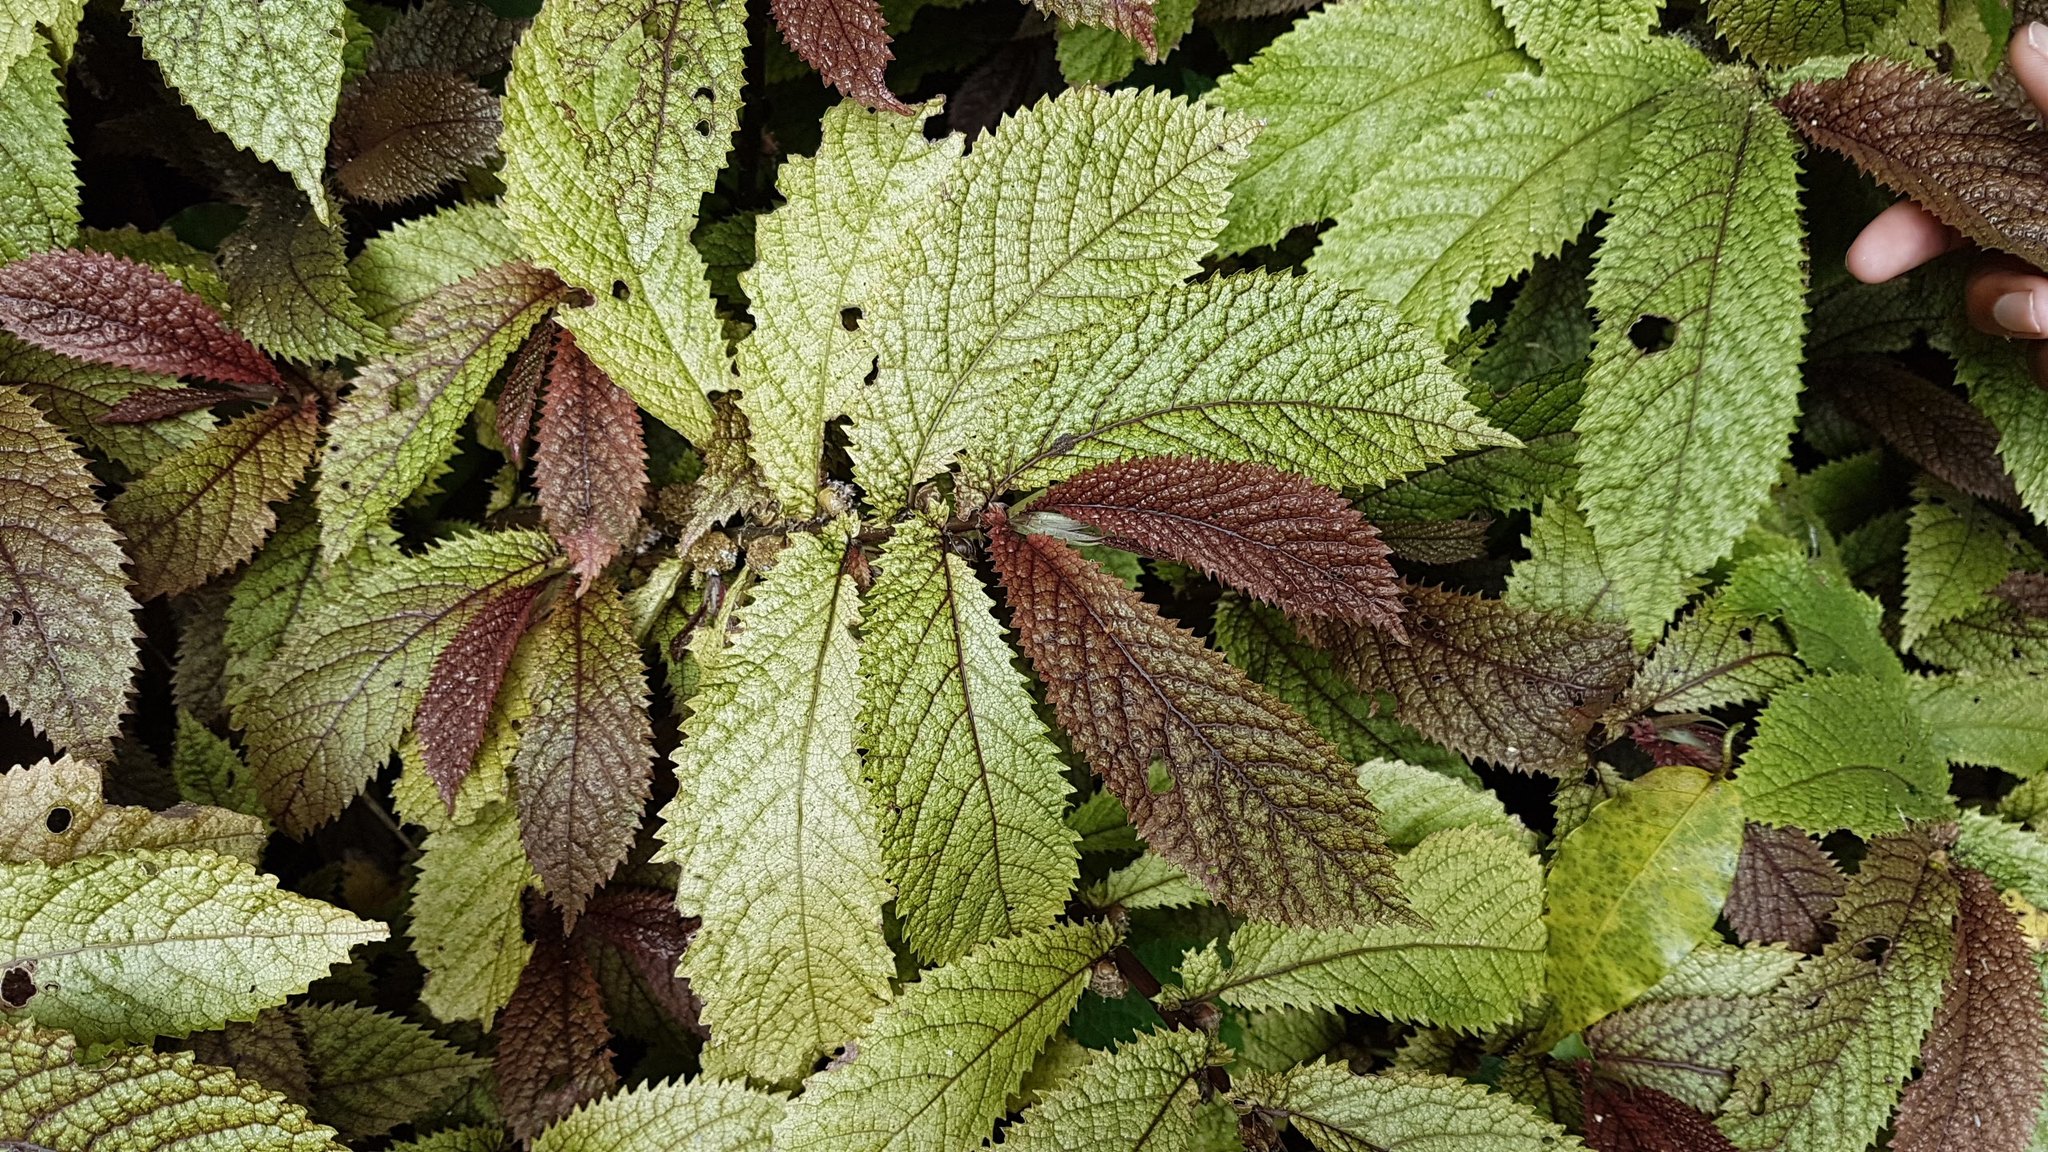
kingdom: Plantae
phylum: Tracheophyta
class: Magnoliopsida
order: Rosales
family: Urticaceae
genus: Elatostema
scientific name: Elatostema rugosum
